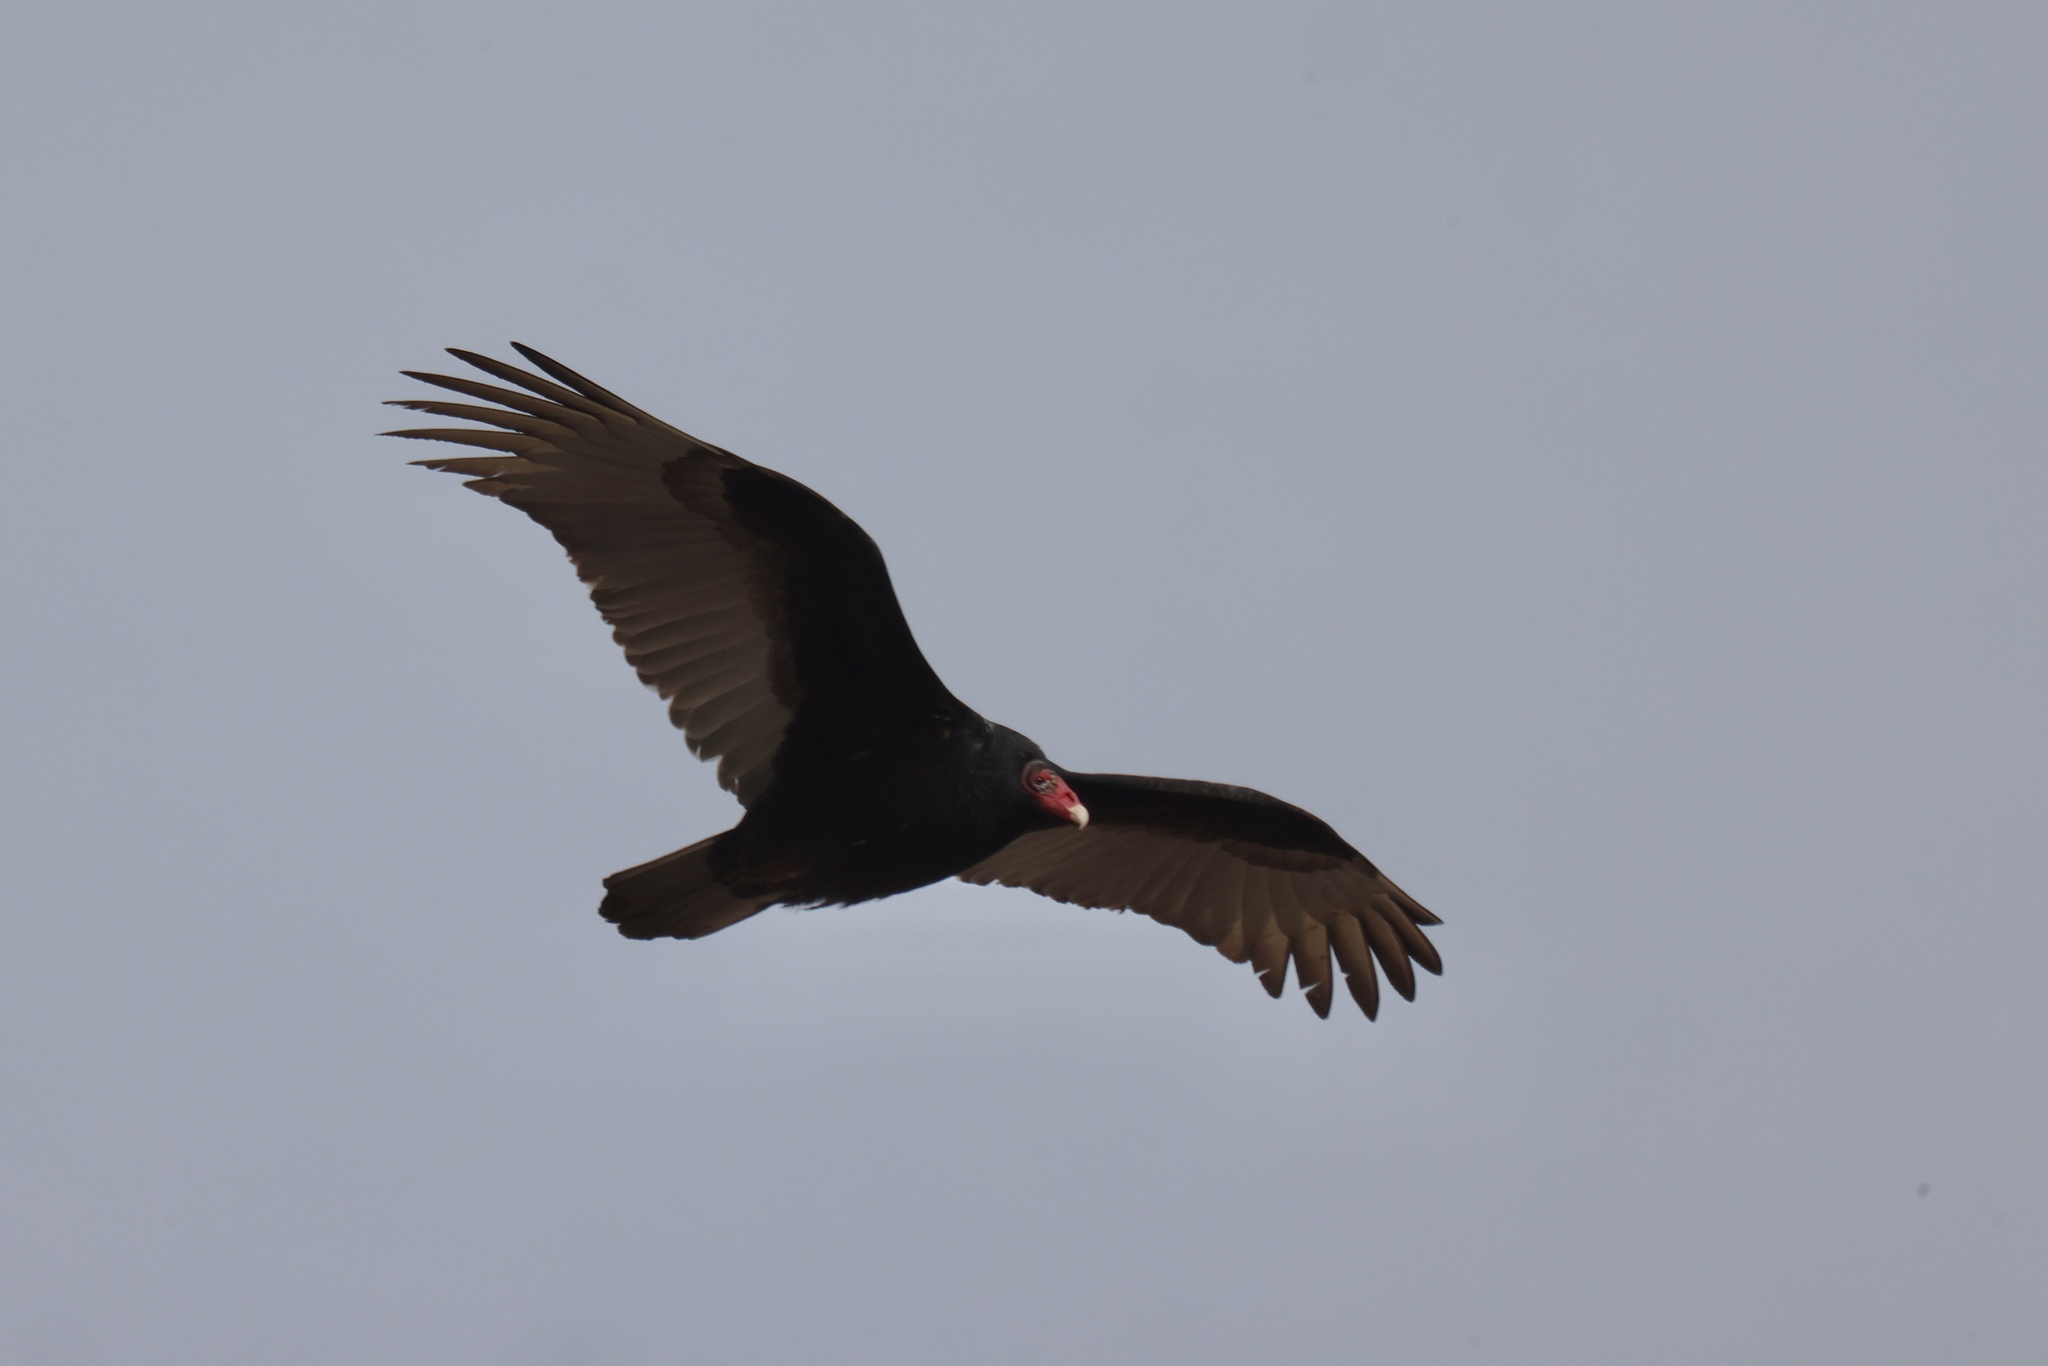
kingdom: Animalia
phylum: Chordata
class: Aves
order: Accipitriformes
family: Cathartidae
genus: Cathartes
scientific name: Cathartes aura
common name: Turkey vulture
